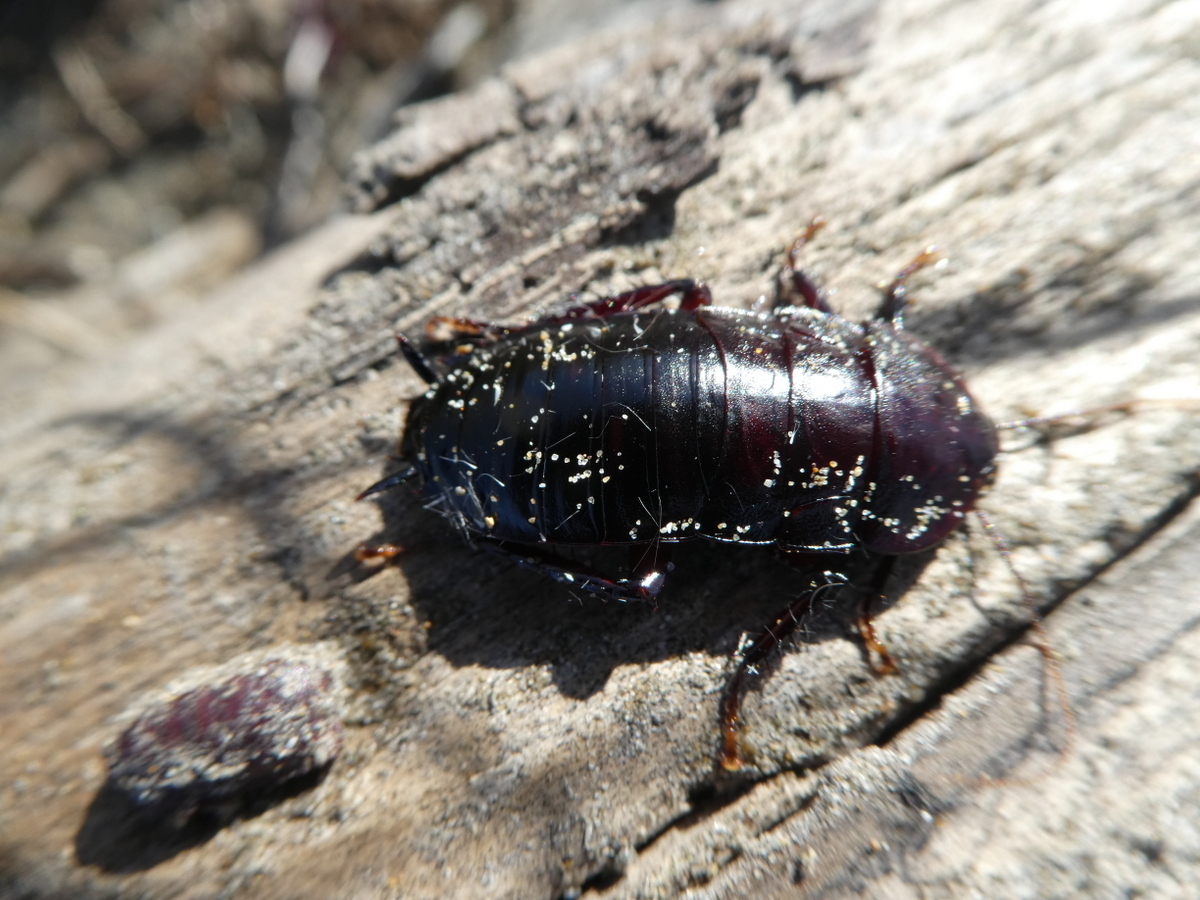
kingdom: Animalia
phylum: Arthropoda
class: Insecta
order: Blattodea
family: Blattidae
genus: Maoriblatta
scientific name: Maoriblatta novaeseelandiae
